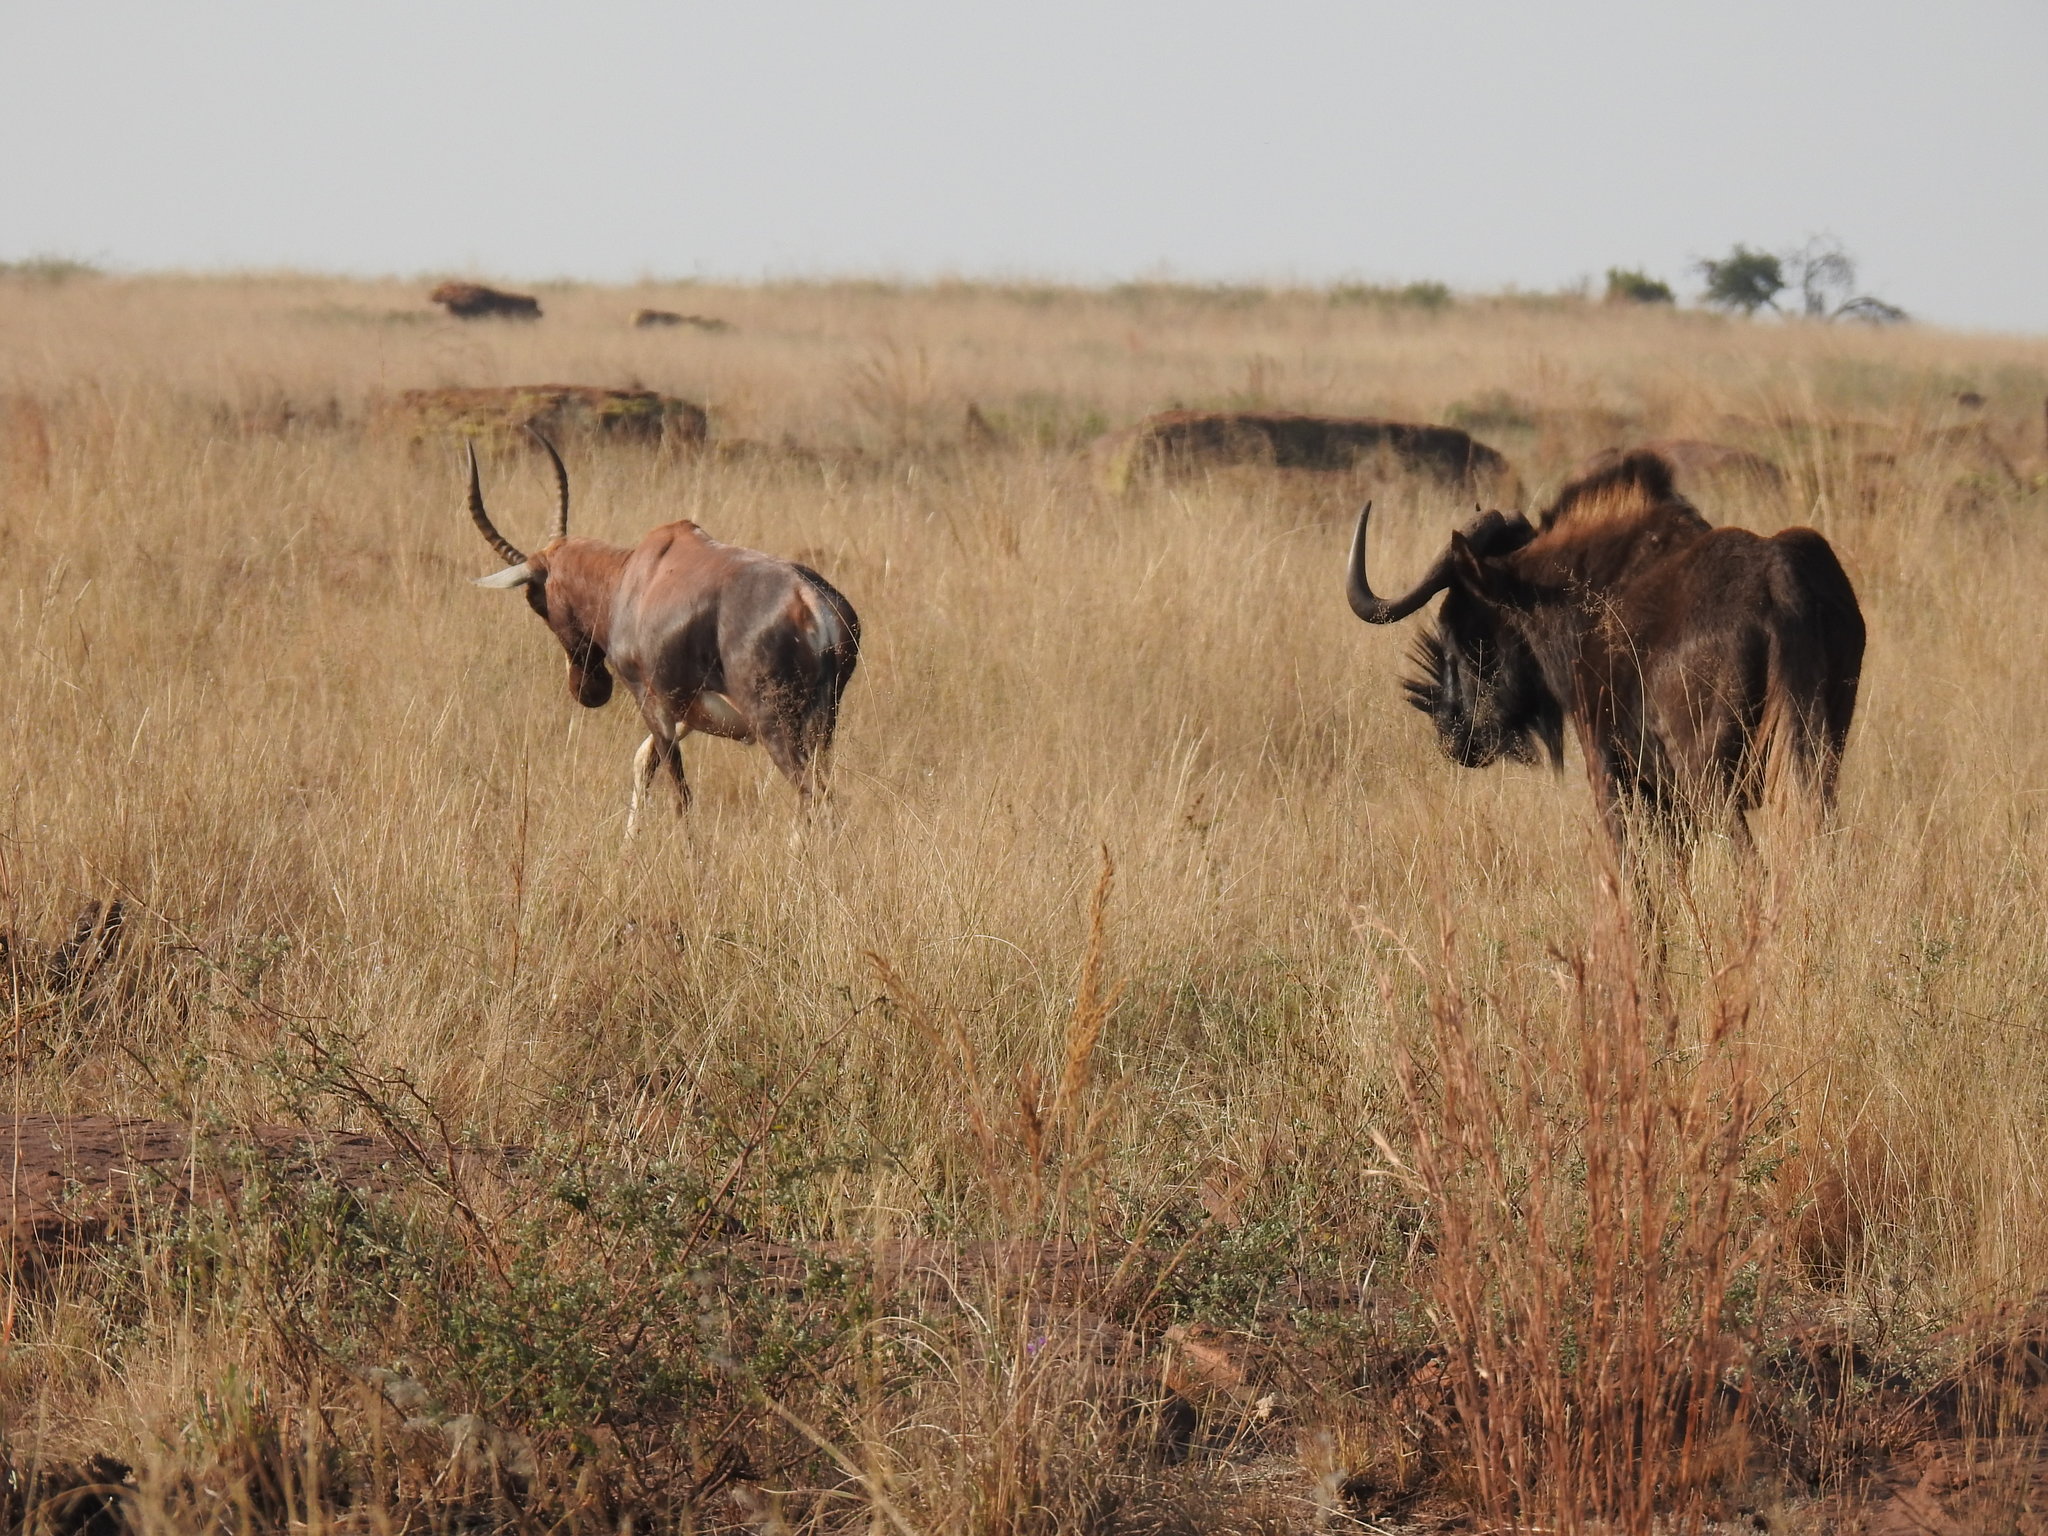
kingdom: Animalia
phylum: Chordata
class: Mammalia
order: Artiodactyla
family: Bovidae
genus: Damaliscus
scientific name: Damaliscus pygargus
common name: Bontebok
